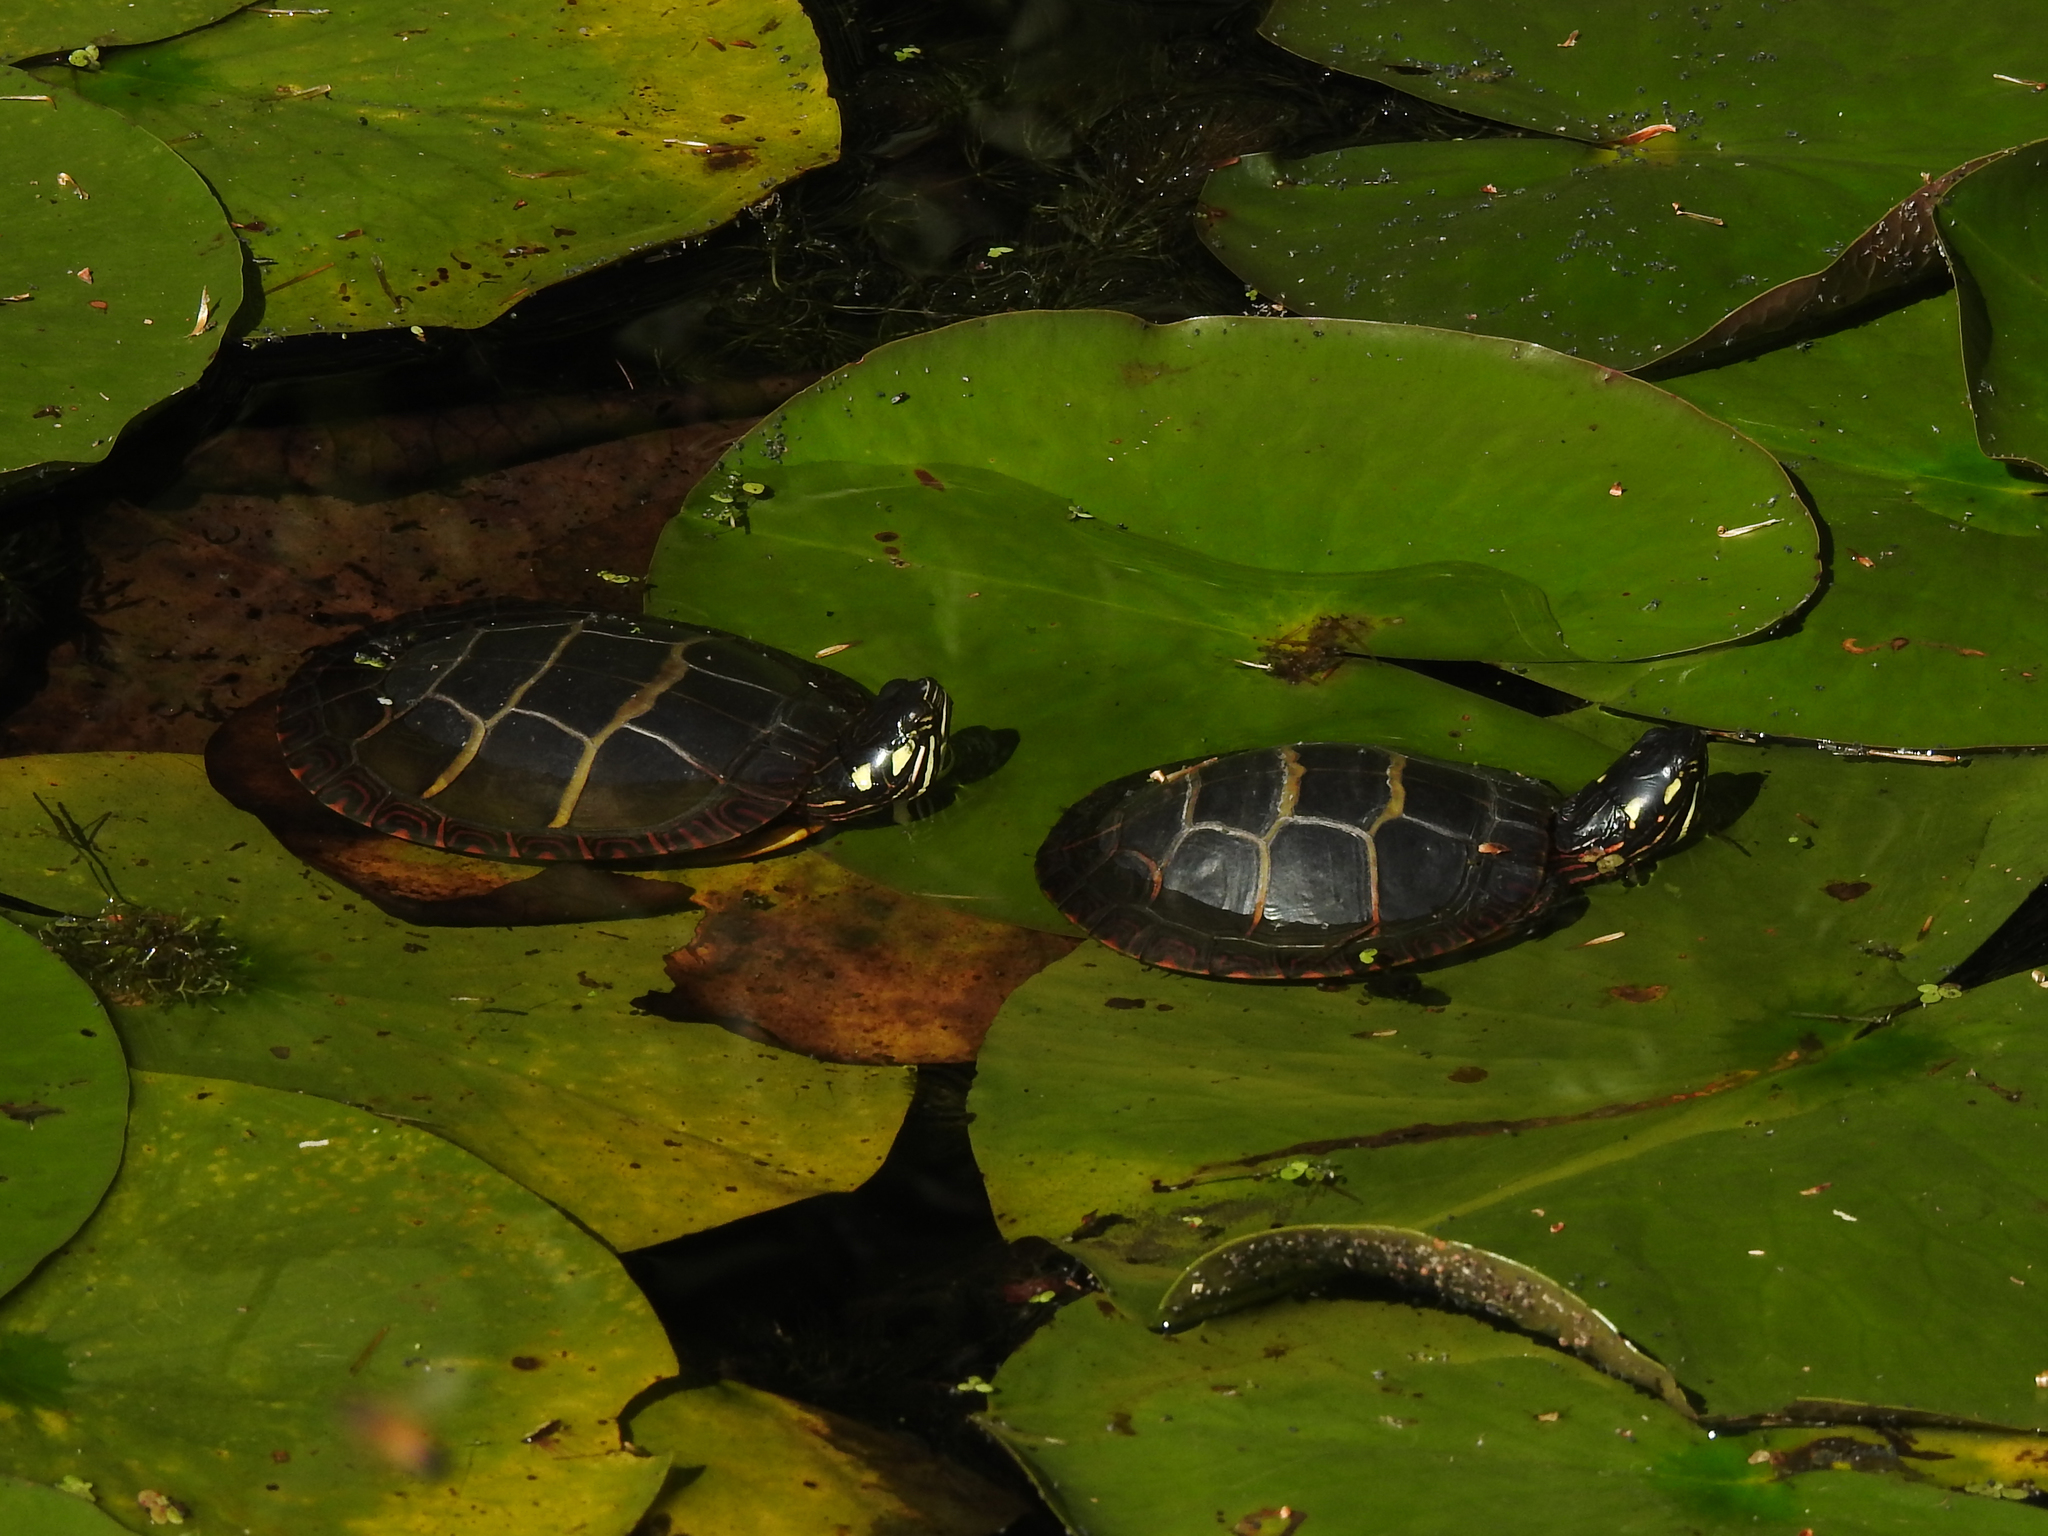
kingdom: Animalia
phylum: Chordata
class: Testudines
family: Emydidae
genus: Chrysemys
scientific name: Chrysemys picta
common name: Painted turtle
